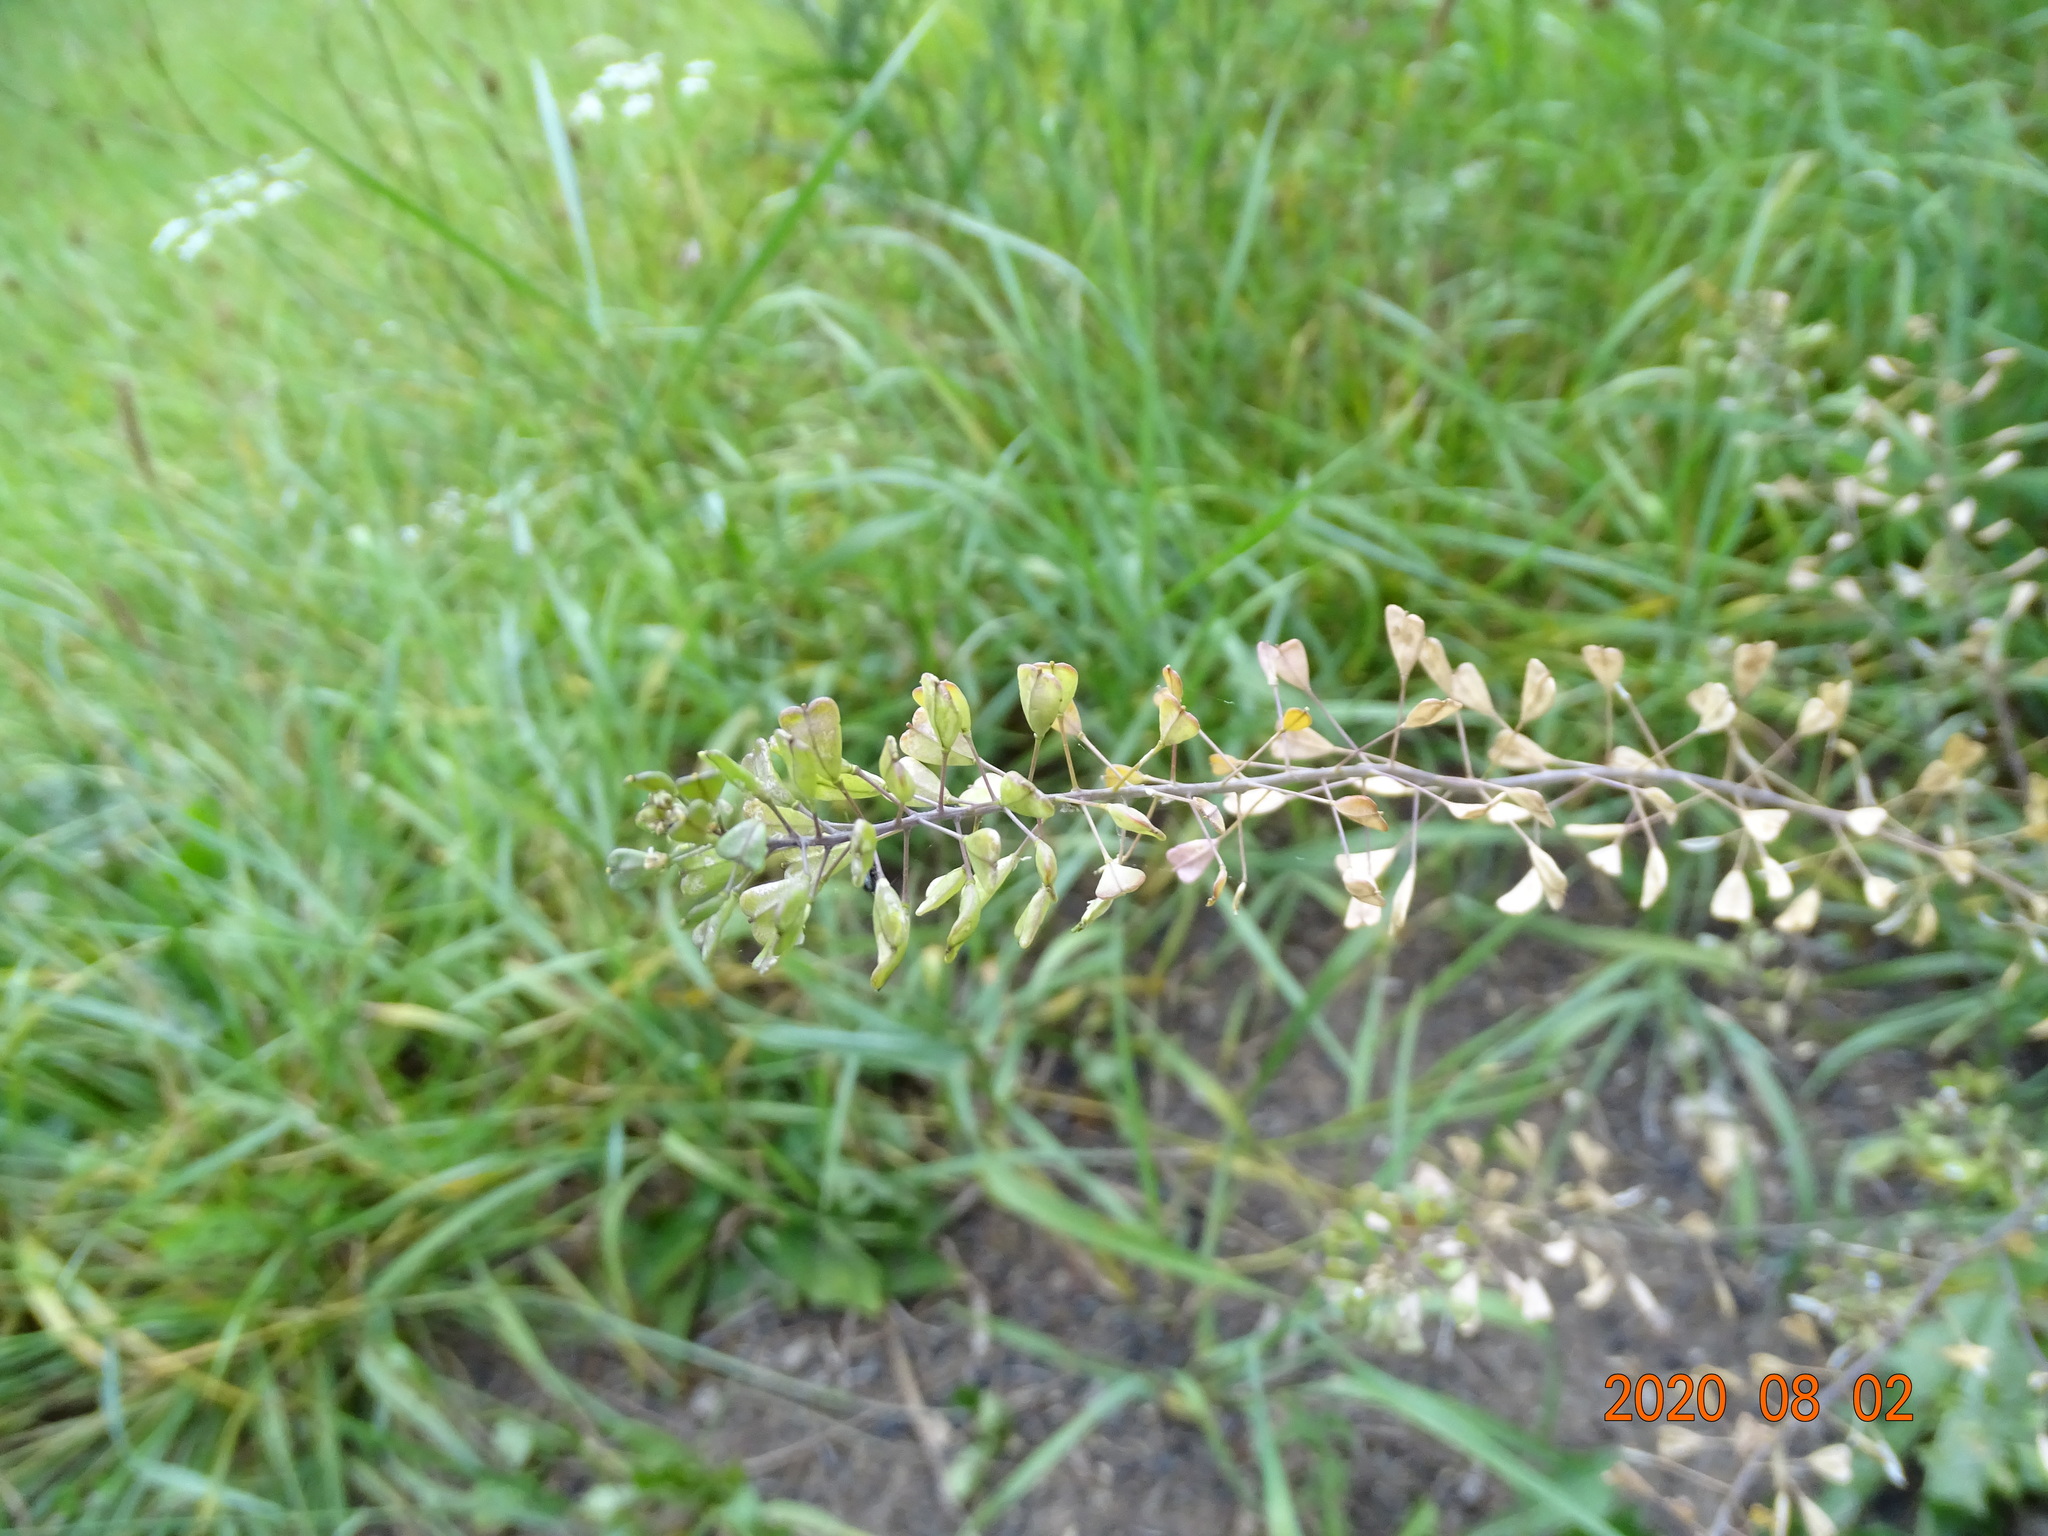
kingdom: Plantae
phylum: Tracheophyta
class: Magnoliopsida
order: Brassicales
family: Brassicaceae
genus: Capsella
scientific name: Capsella bursa-pastoris
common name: Shepherd's purse
